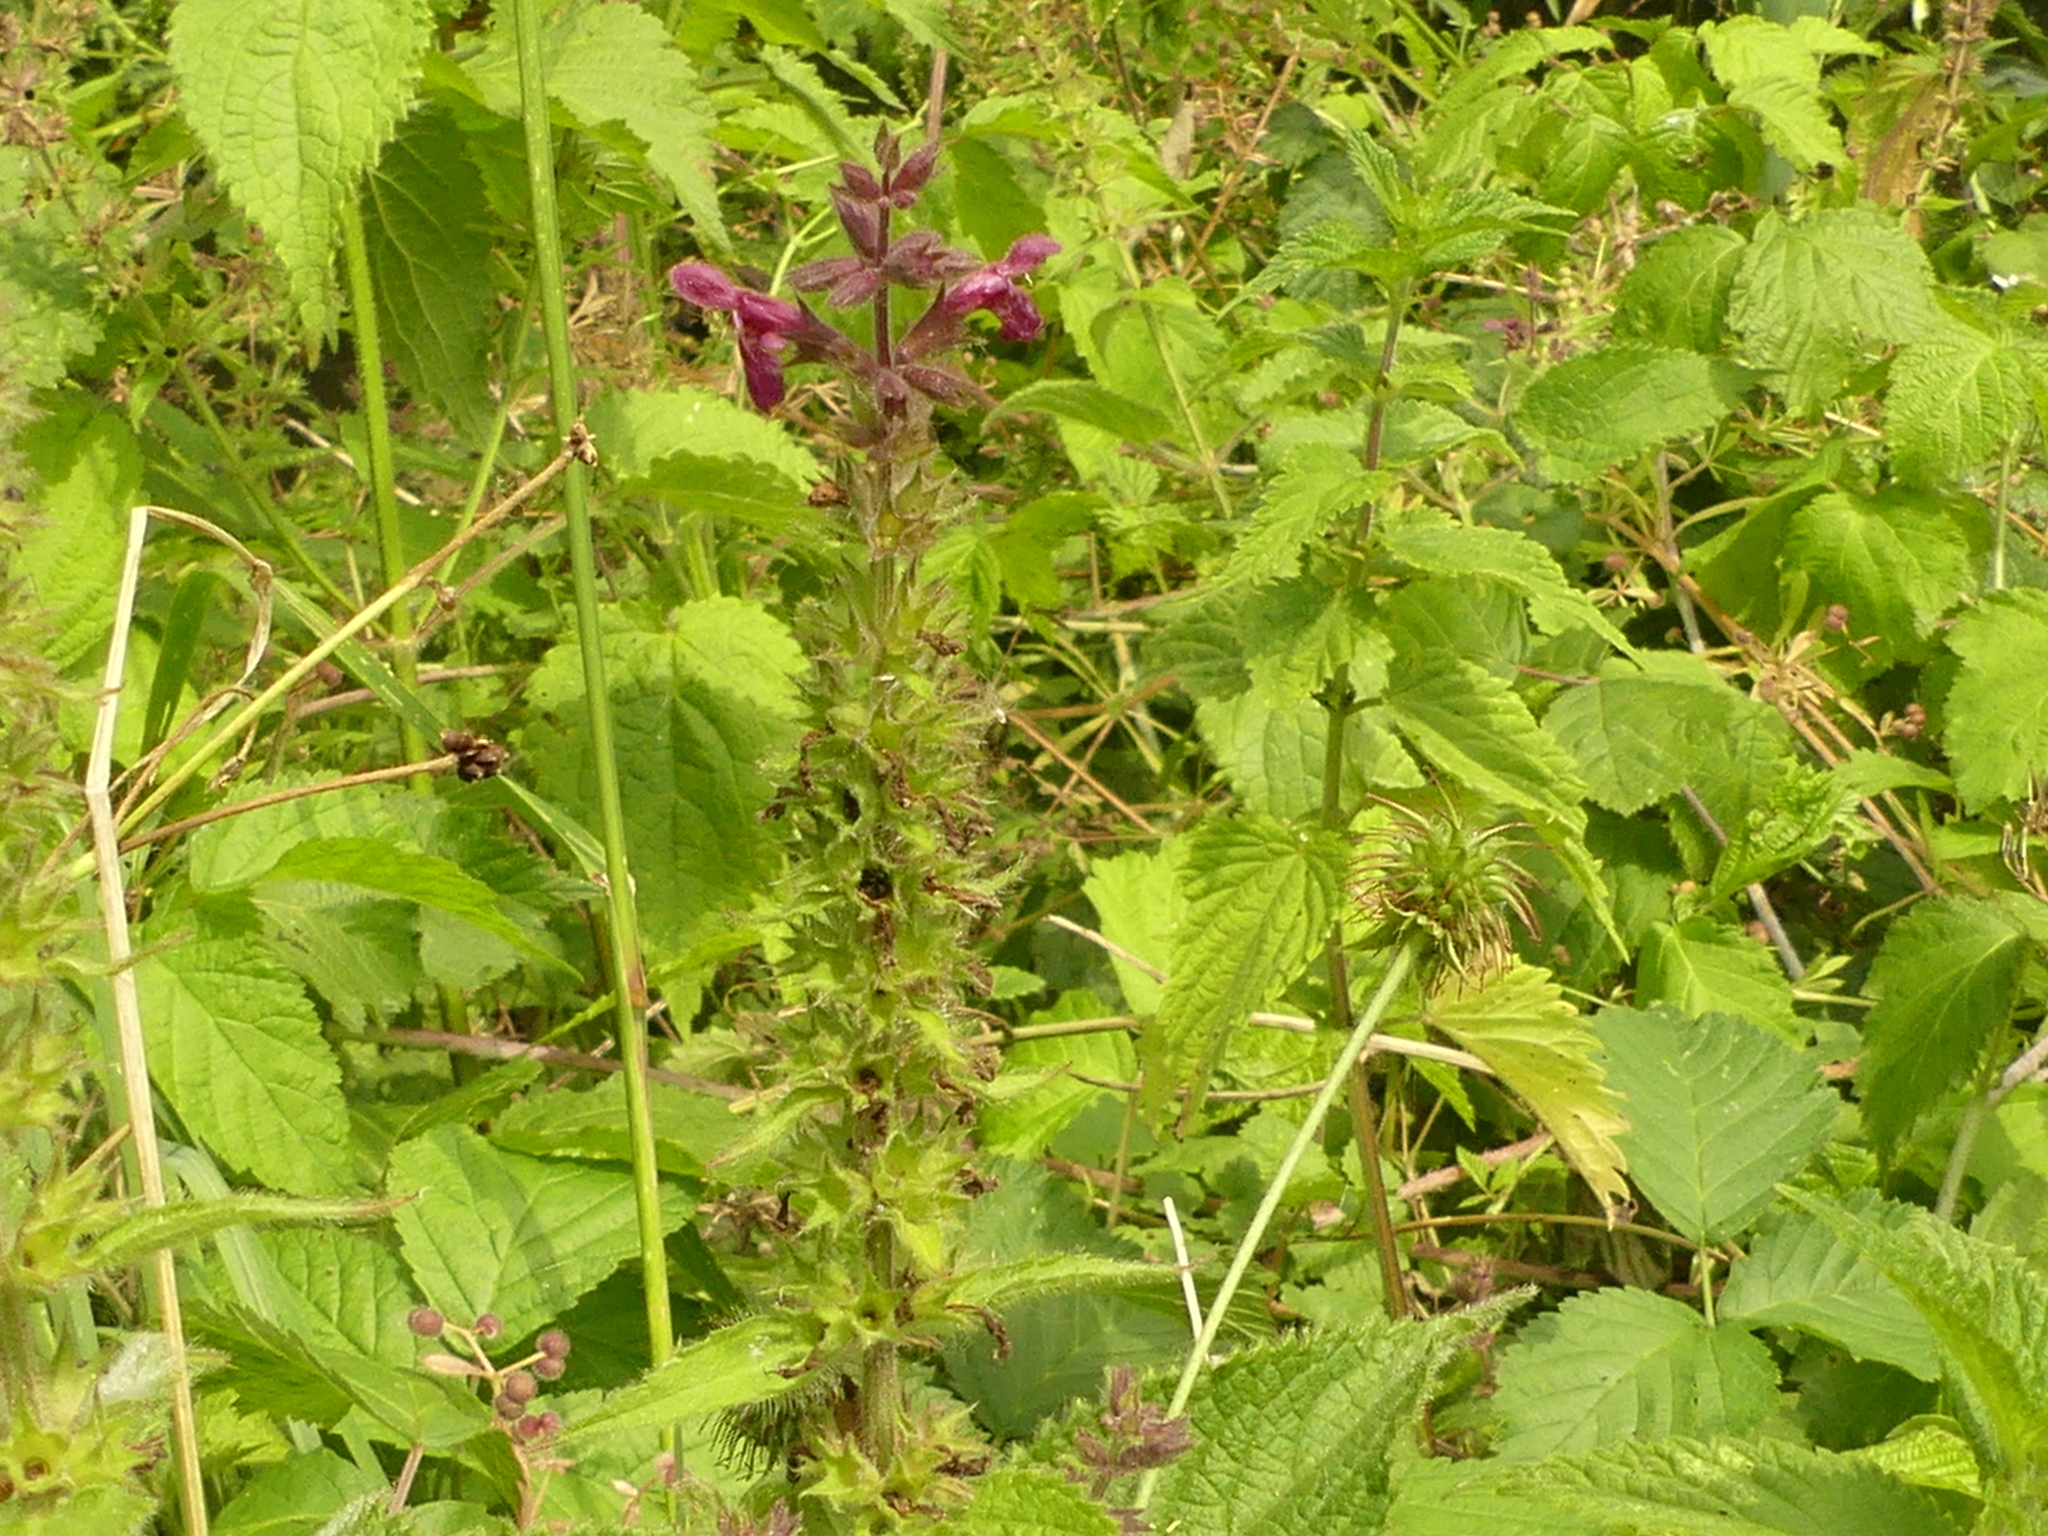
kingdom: Plantae
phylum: Tracheophyta
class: Magnoliopsida
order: Lamiales
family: Lamiaceae
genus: Stachys
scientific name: Stachys sylvatica
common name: Hedge woundwort
